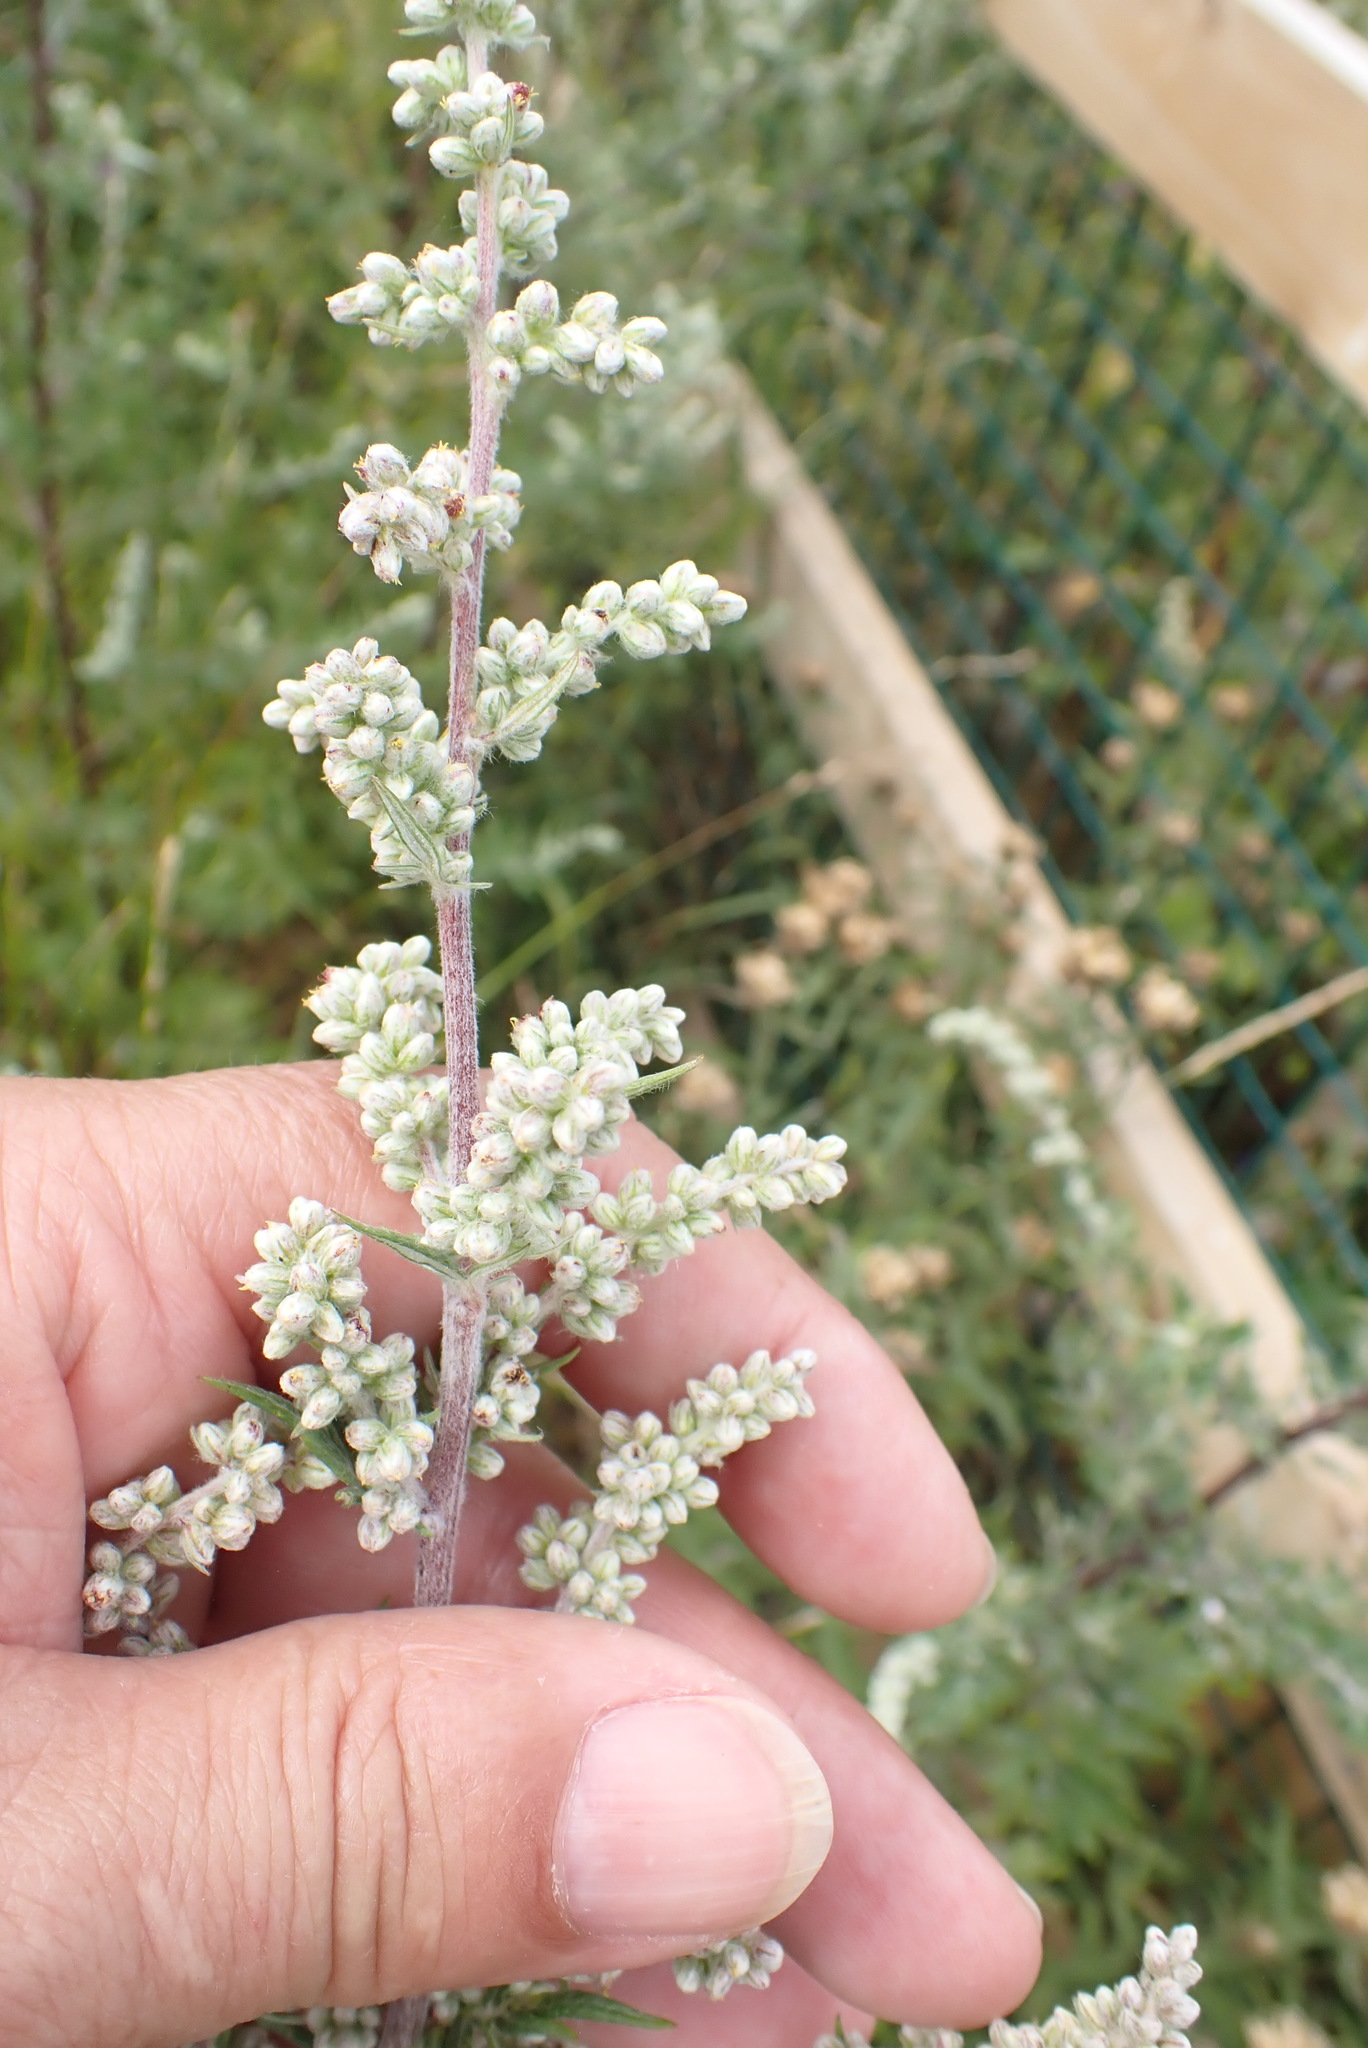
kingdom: Plantae
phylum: Tracheophyta
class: Magnoliopsida
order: Asterales
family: Asteraceae
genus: Artemisia
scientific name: Artemisia vulgaris
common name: Mugwort
